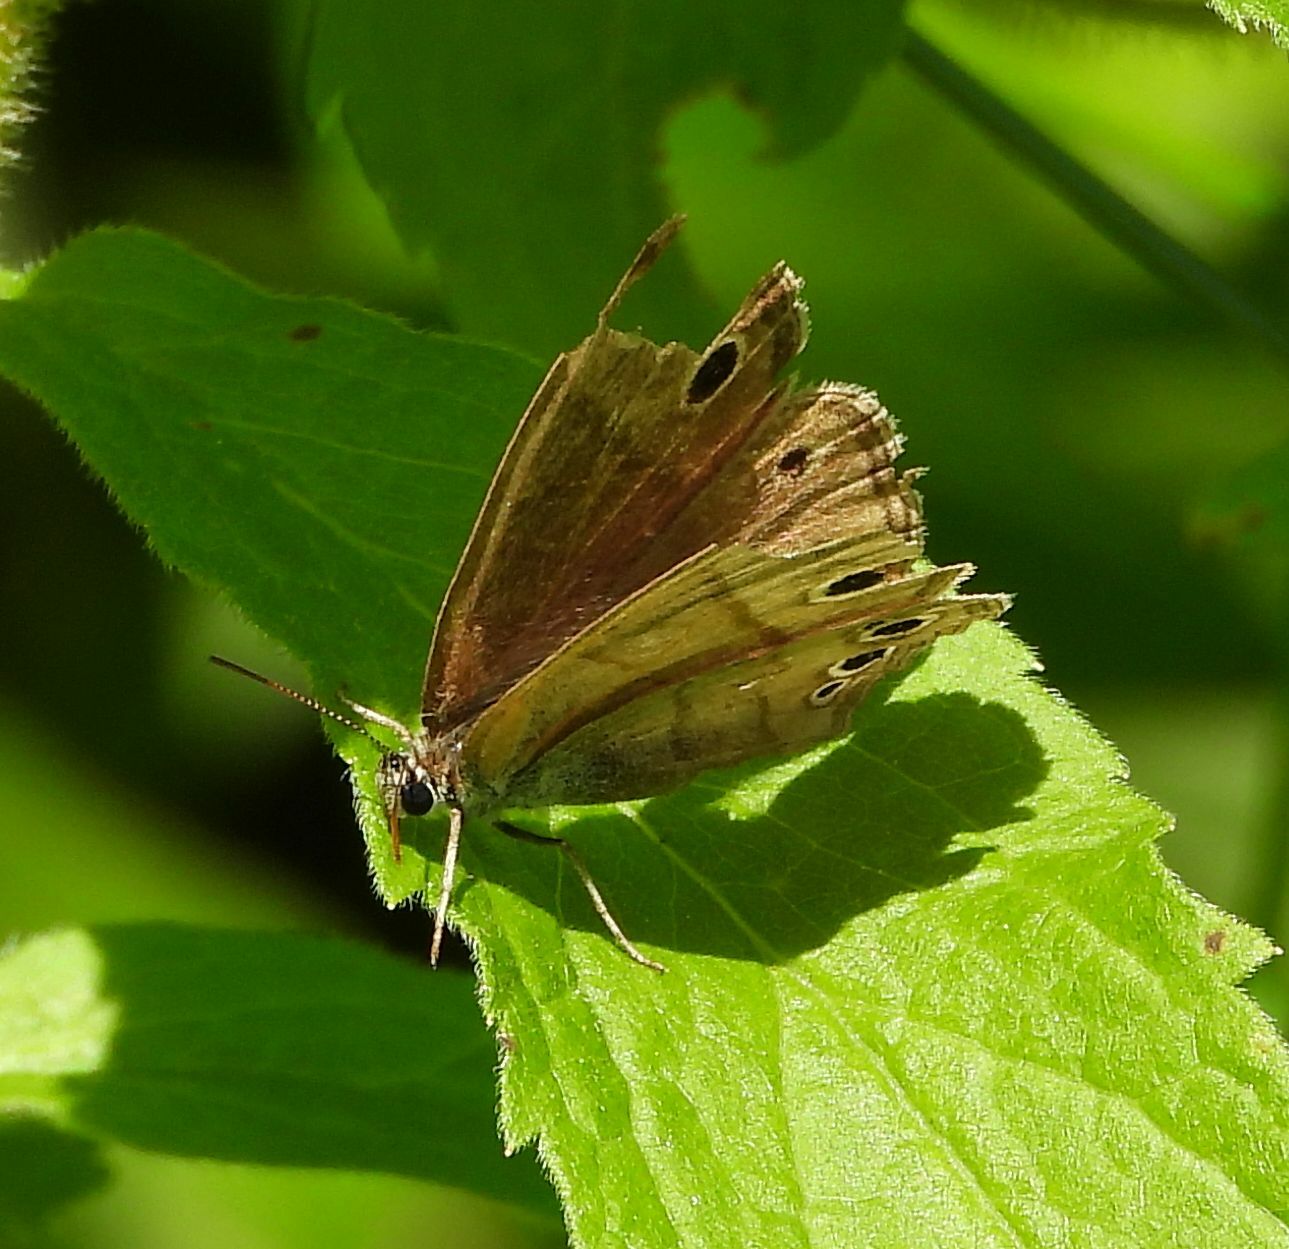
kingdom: Animalia
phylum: Arthropoda
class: Insecta
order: Lepidoptera
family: Nymphalidae
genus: Euptychia
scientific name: Euptychia cymela
